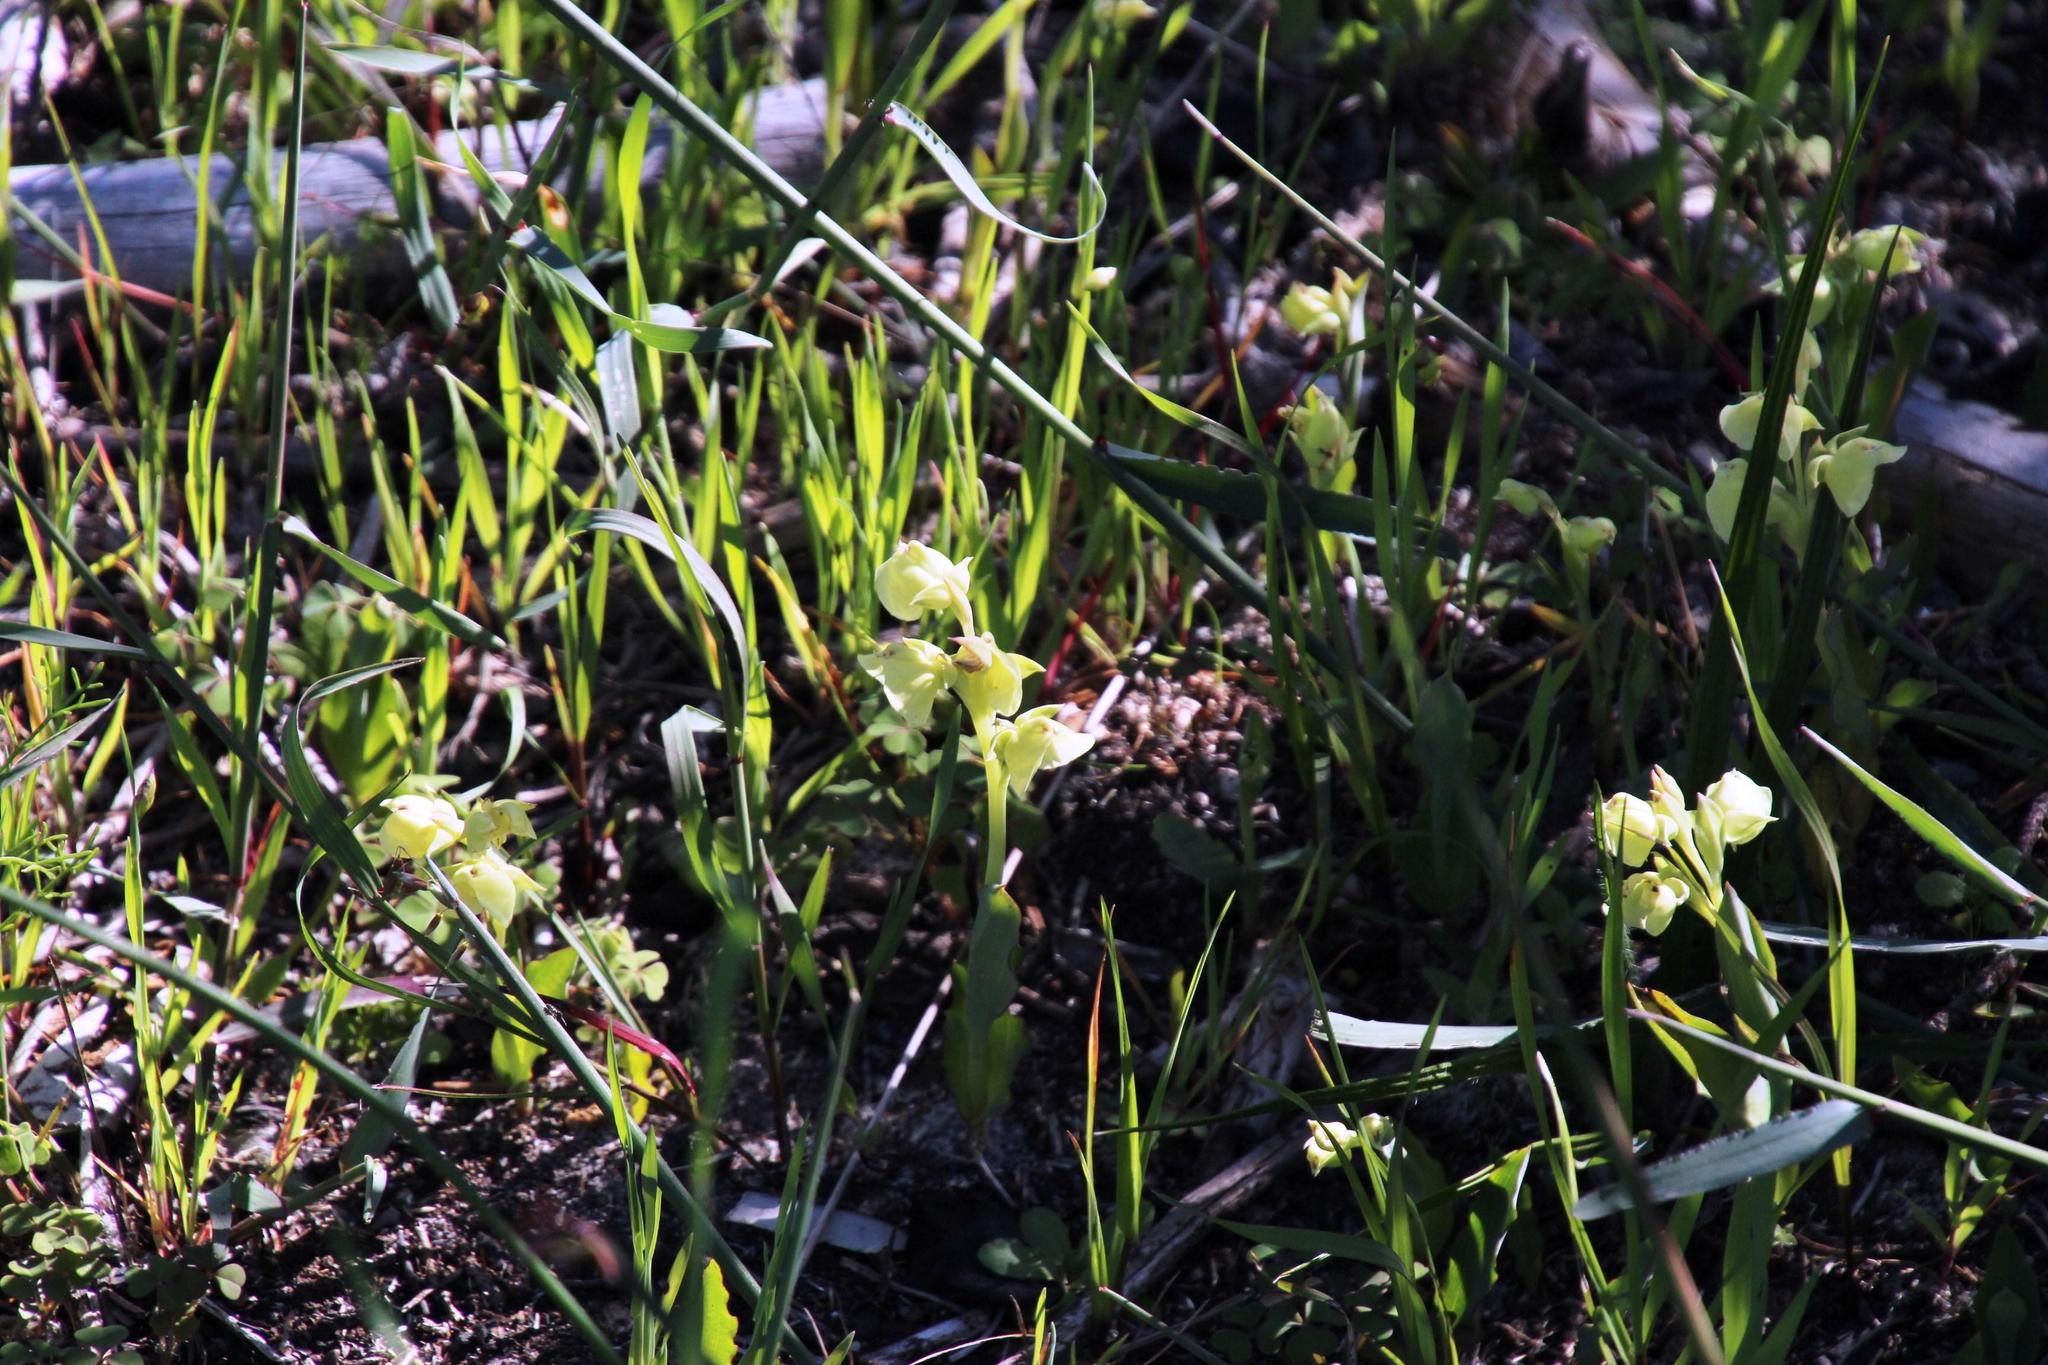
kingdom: Plantae
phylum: Tracheophyta
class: Liliopsida
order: Asparagales
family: Orchidaceae
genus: Pterygodium
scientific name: Pterygodium catholicum
